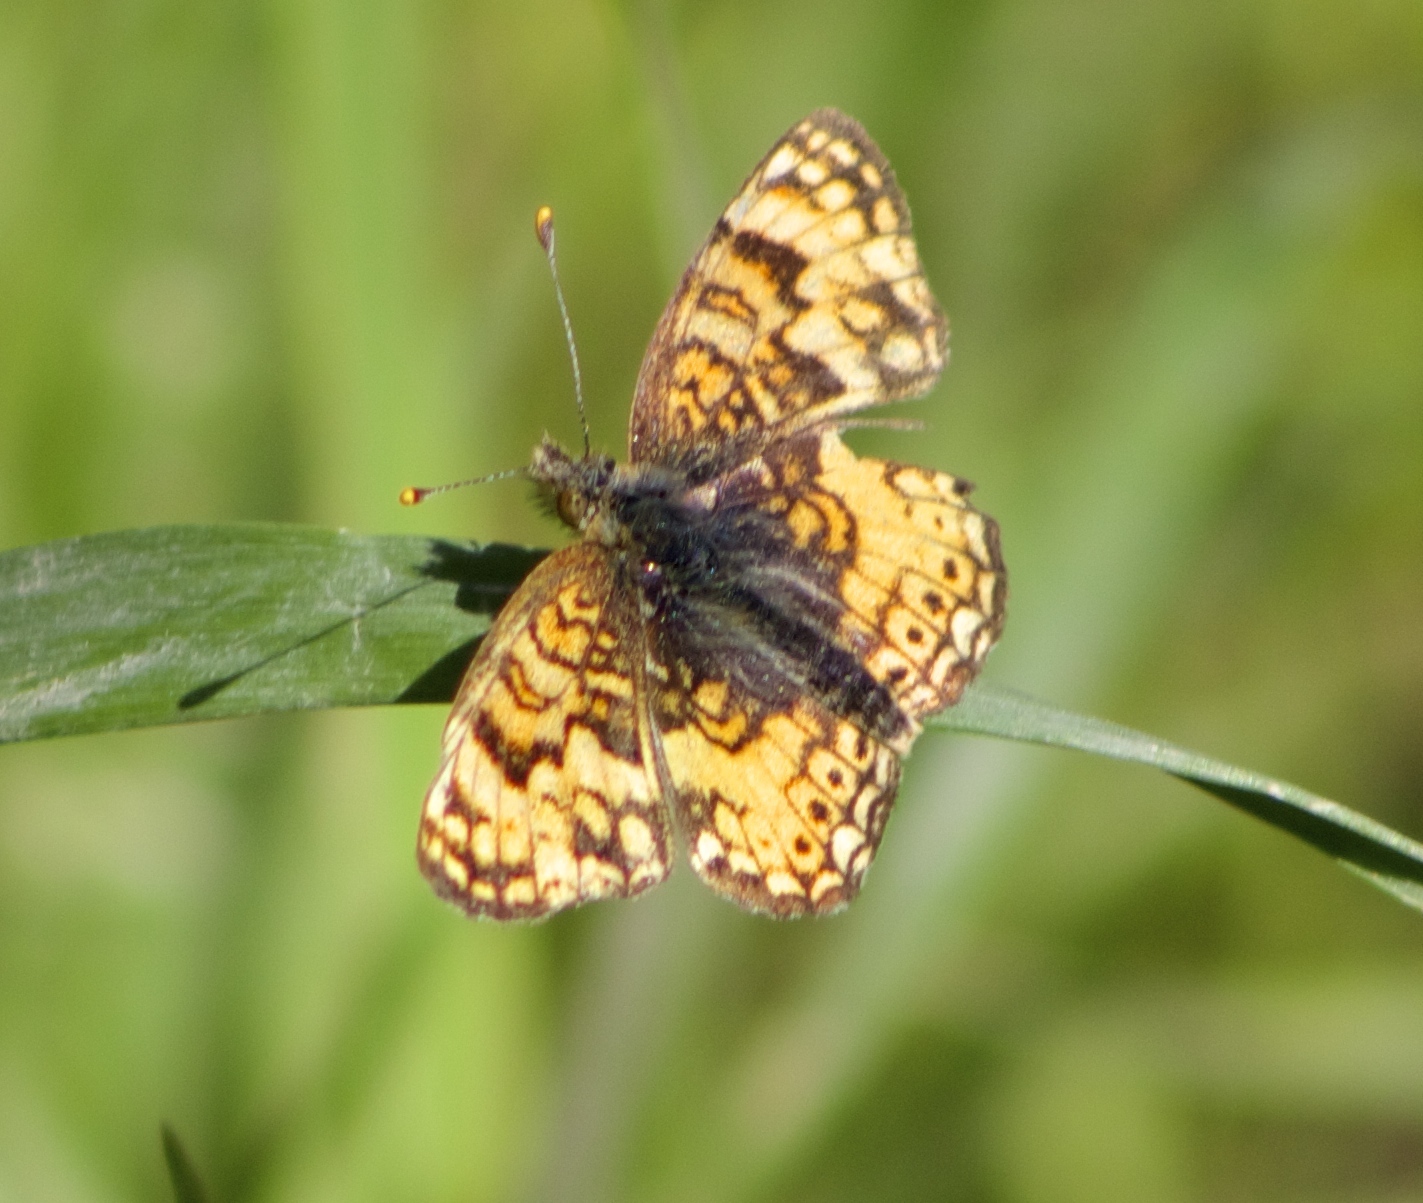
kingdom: Animalia
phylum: Arthropoda
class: Insecta
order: Lepidoptera
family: Nymphalidae
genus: Eresia
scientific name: Eresia aveyrona
